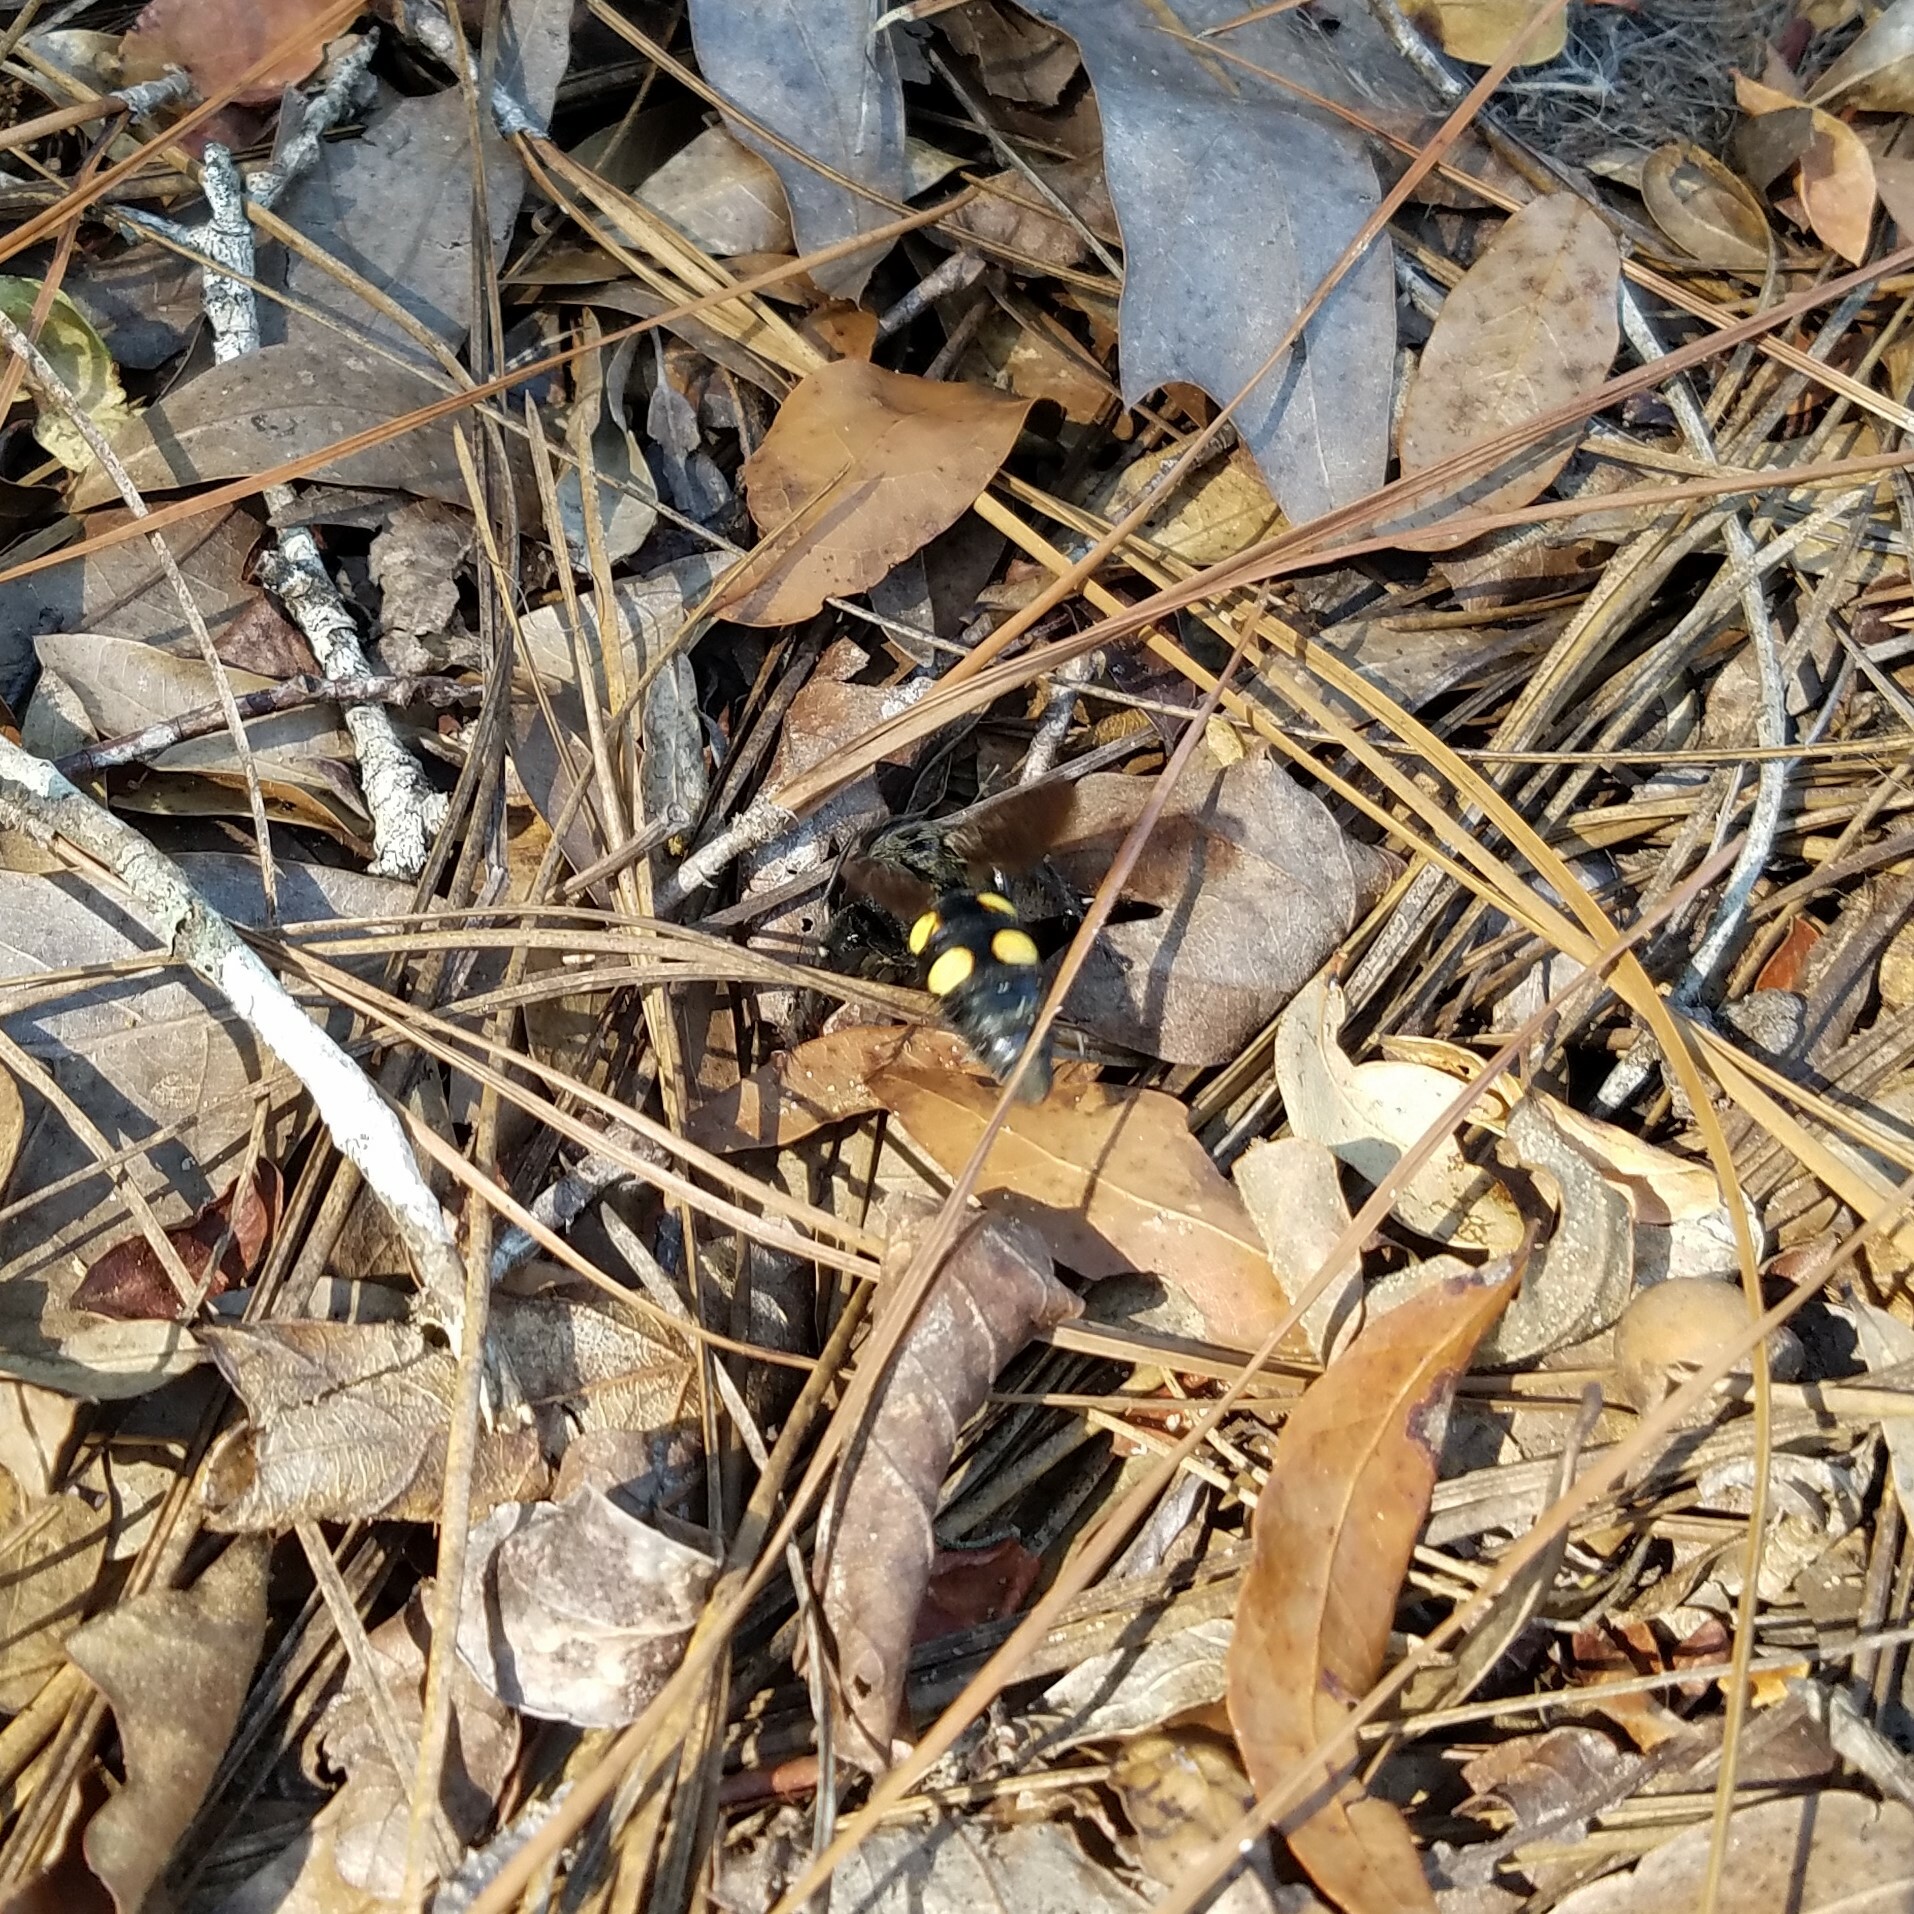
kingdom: Animalia
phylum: Arthropoda
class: Insecta
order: Hymenoptera
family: Scoliidae
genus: Pygodasis
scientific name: Pygodasis
